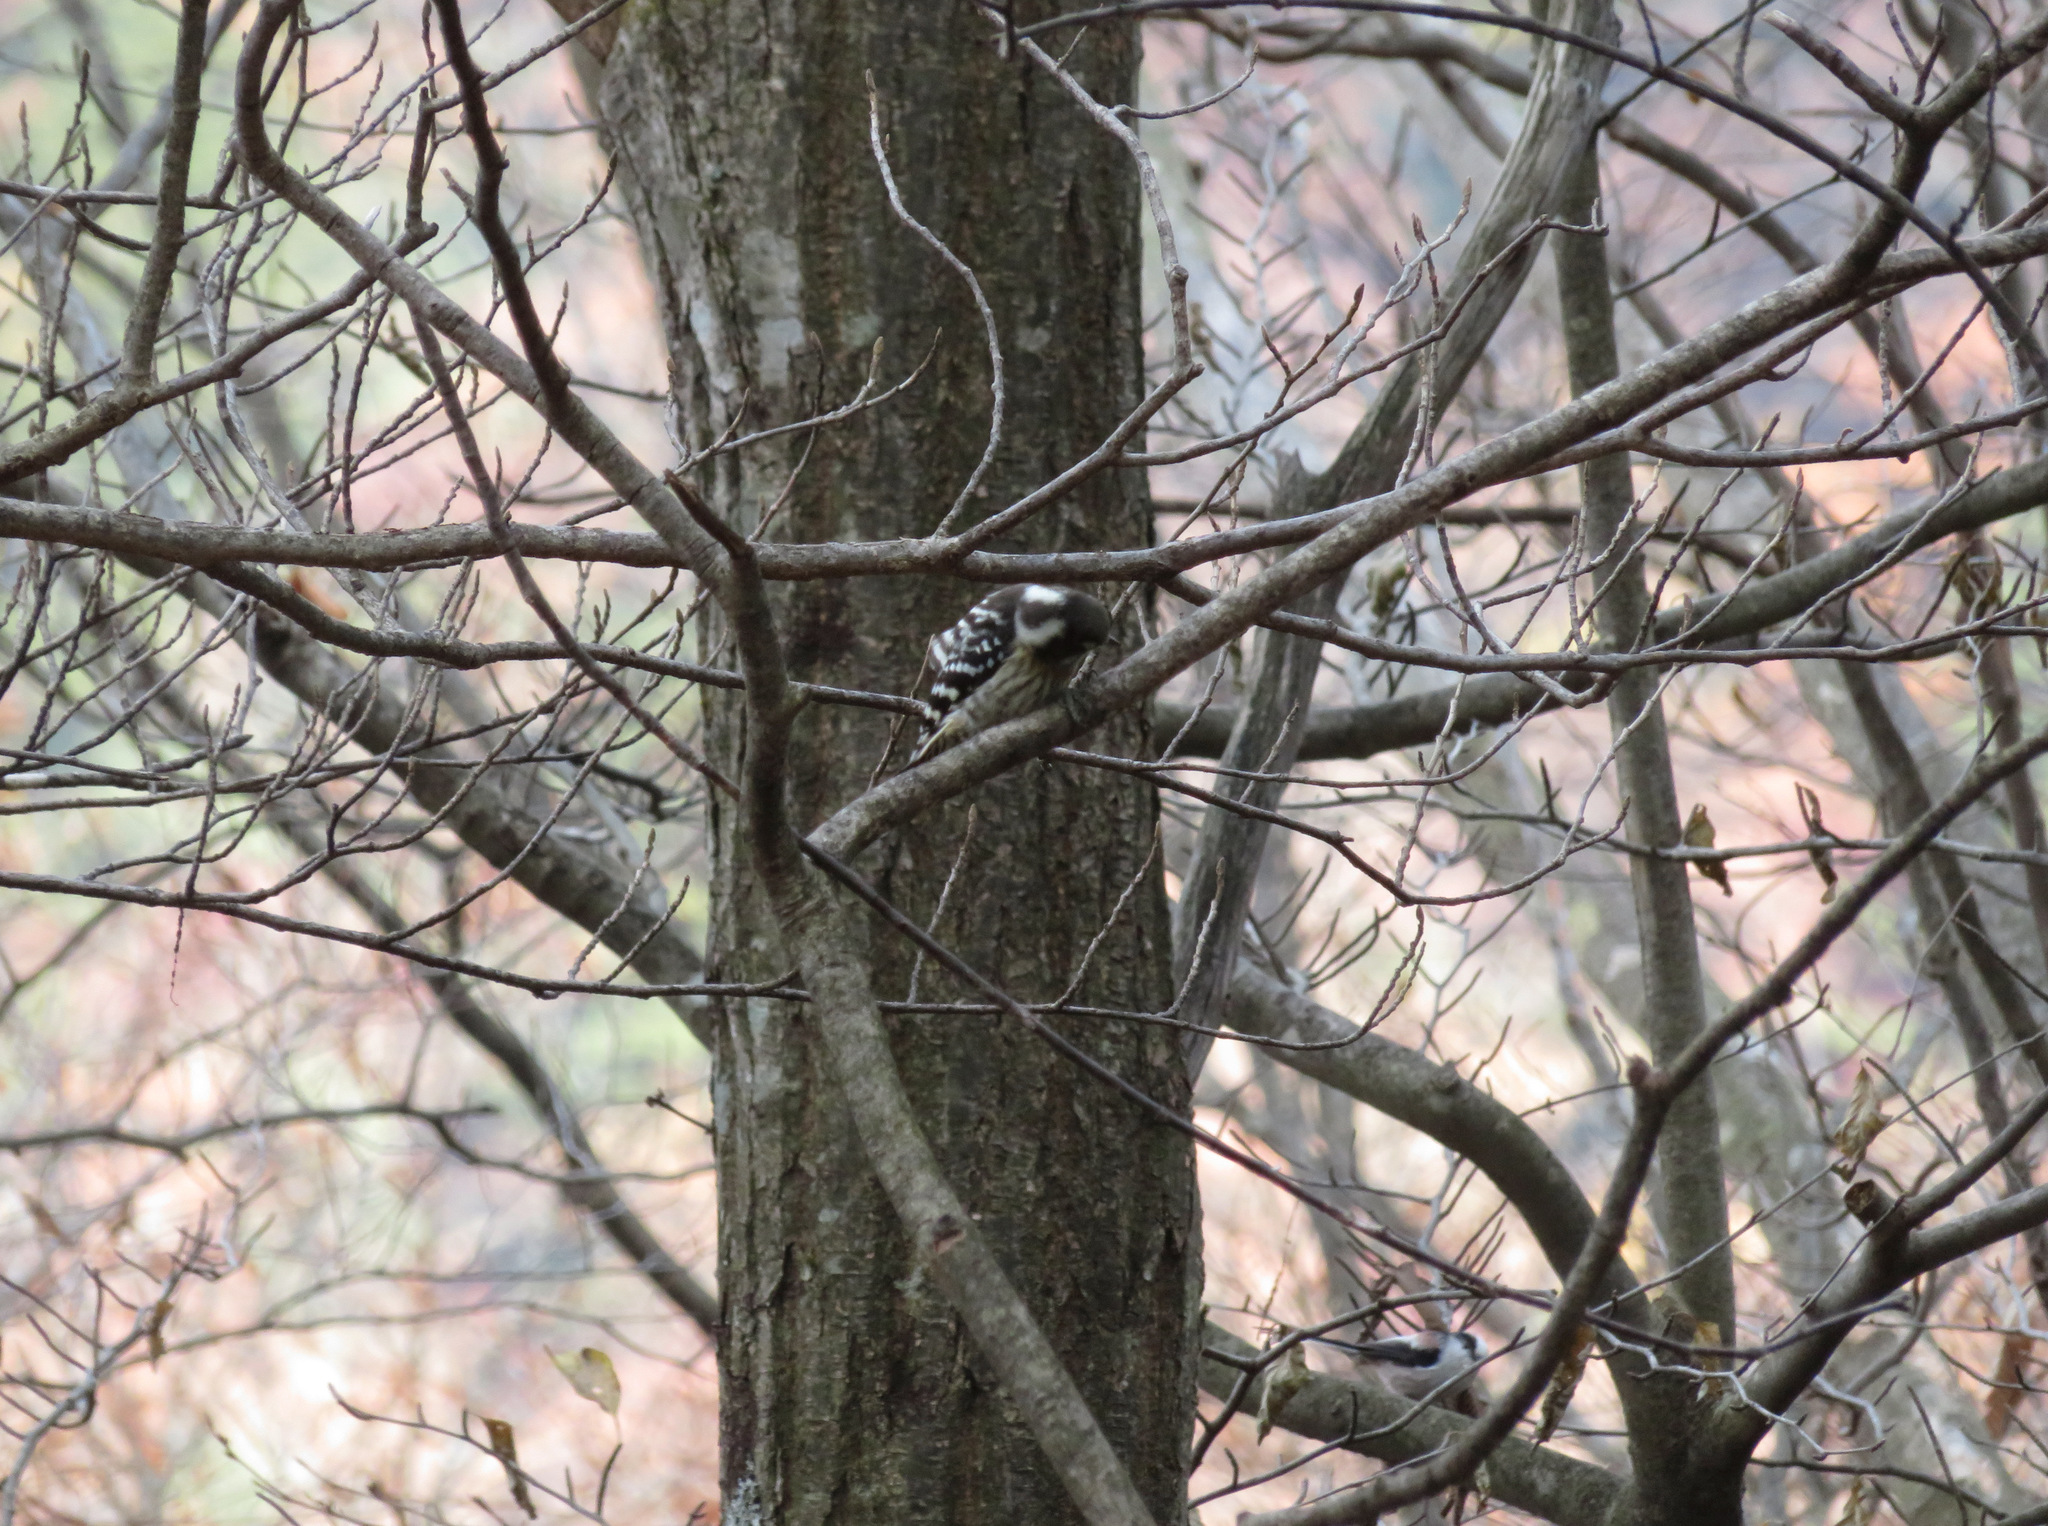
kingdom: Animalia
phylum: Chordata
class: Aves
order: Piciformes
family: Picidae
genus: Yungipicus
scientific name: Yungipicus kizuki
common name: Japanese pygmy woodpecker
